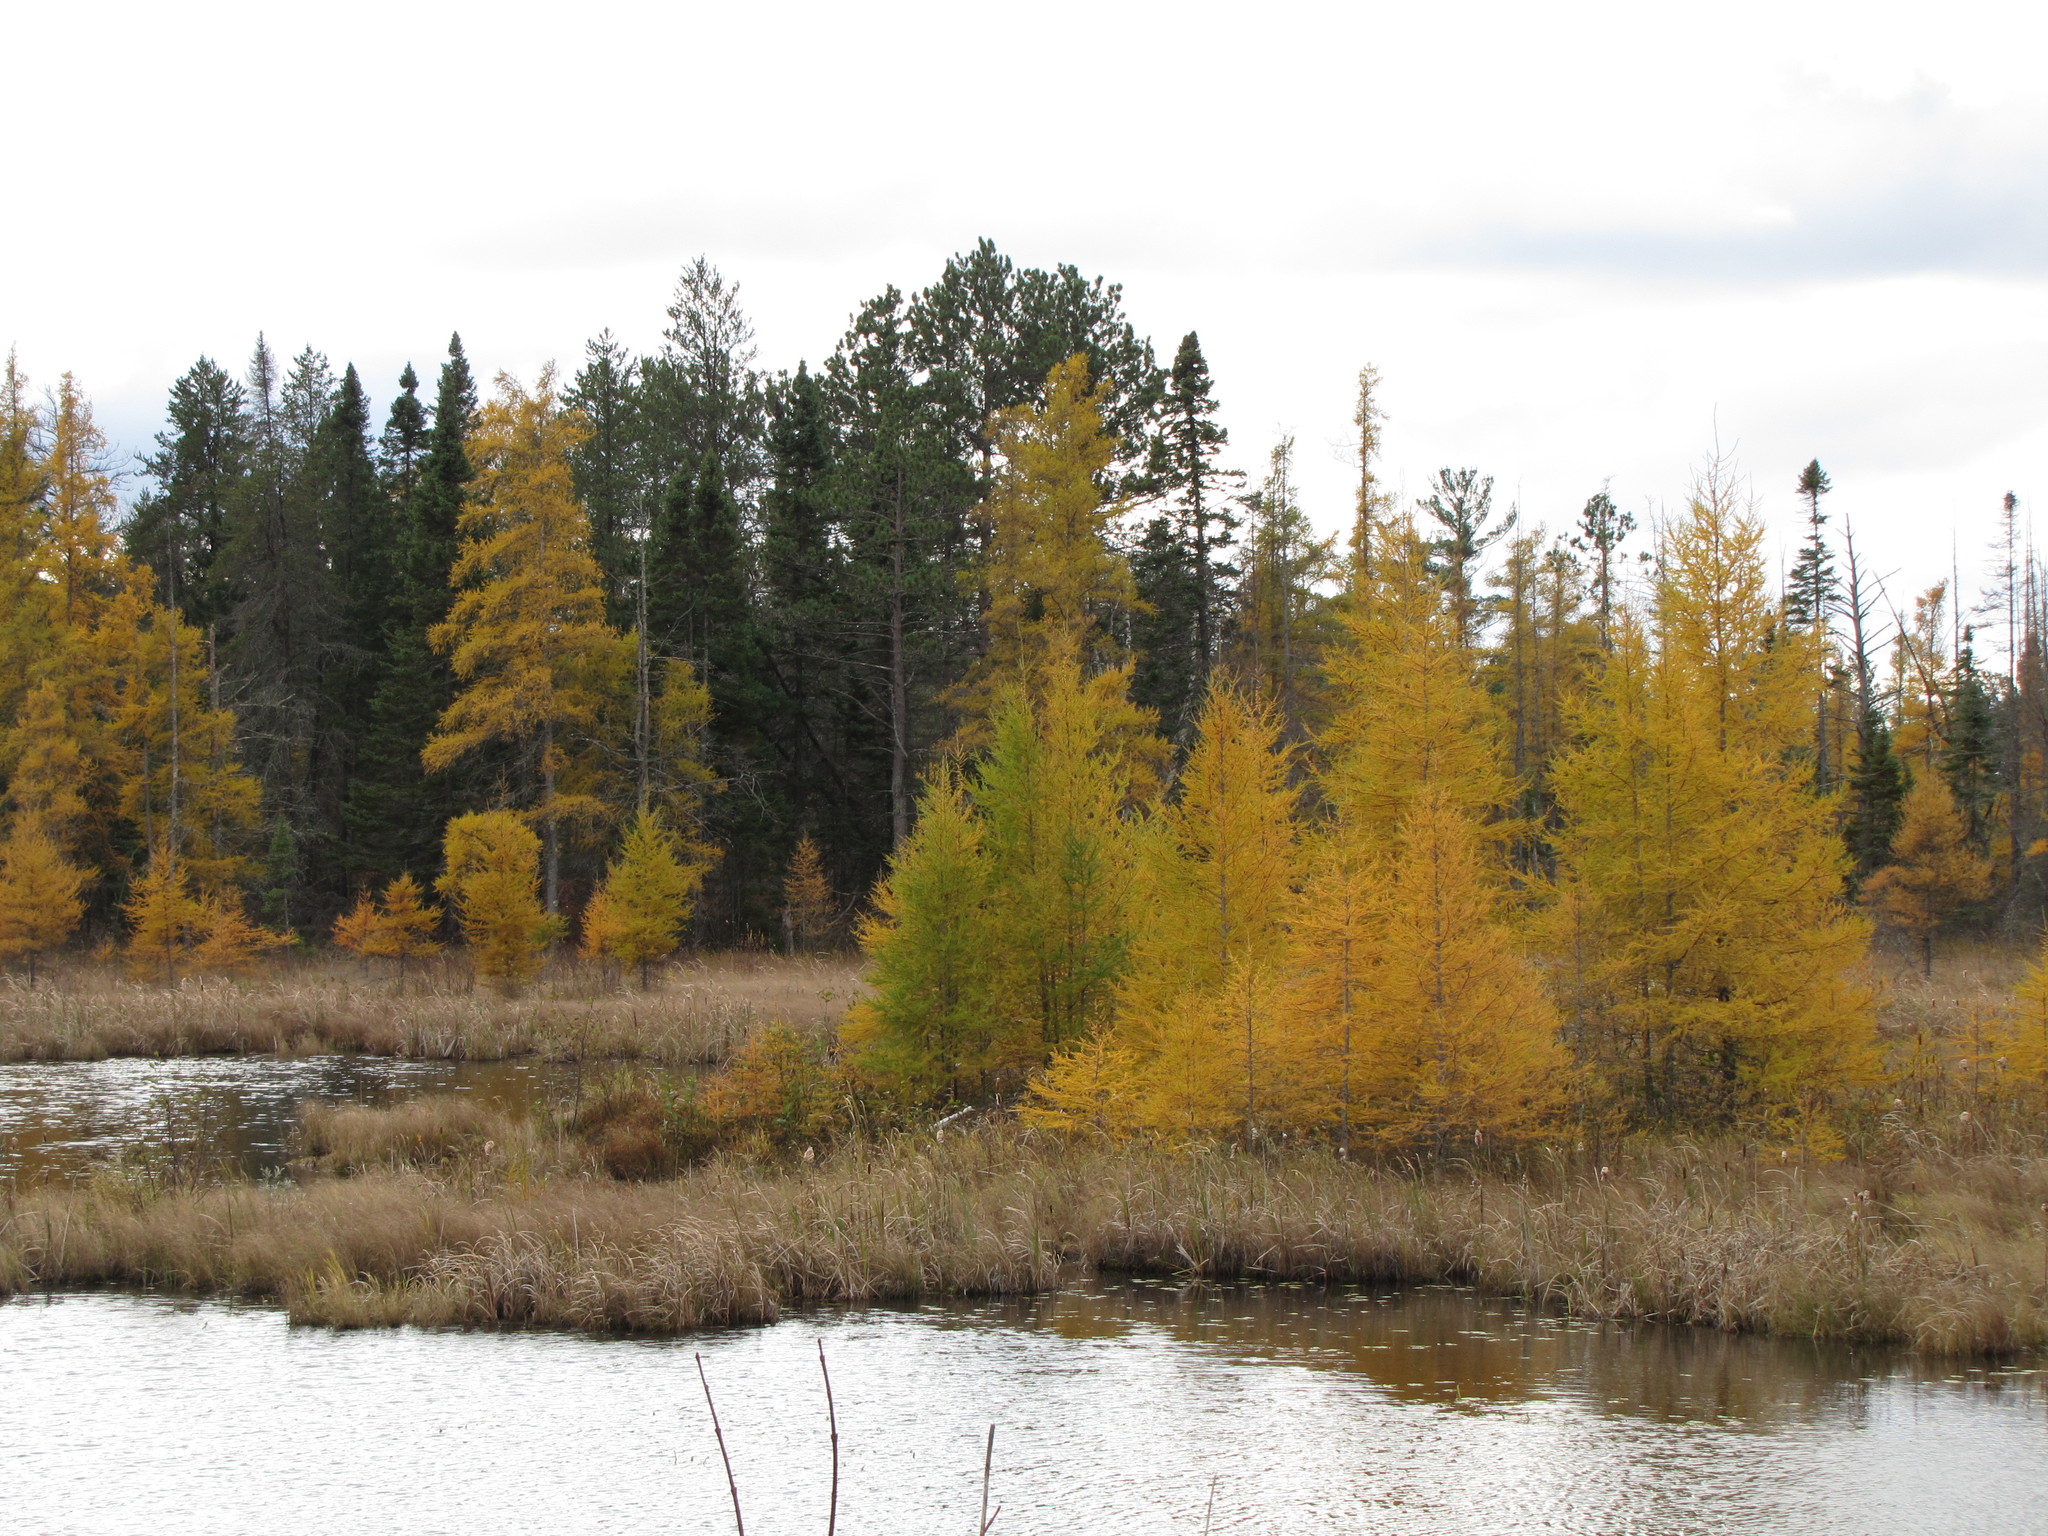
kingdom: Plantae
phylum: Tracheophyta
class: Pinopsida
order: Pinales
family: Pinaceae
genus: Larix
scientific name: Larix laricina
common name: American larch
